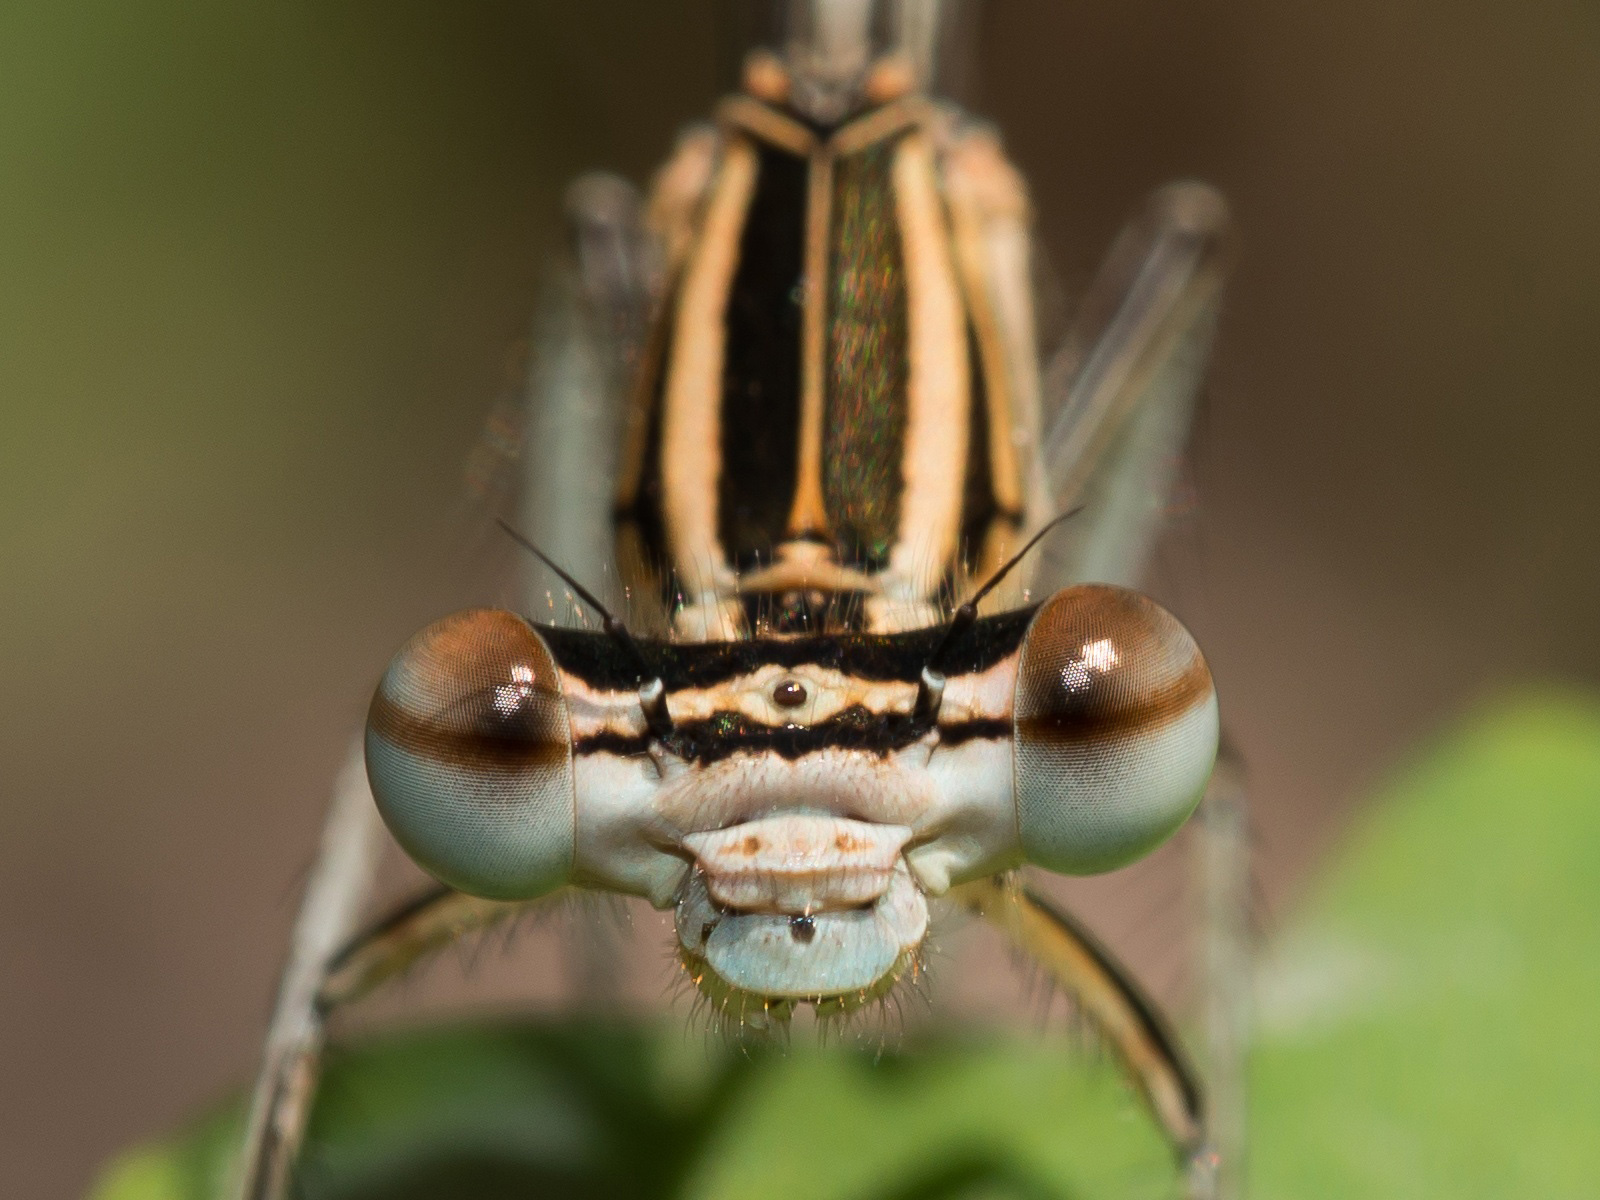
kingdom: Animalia
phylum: Arthropoda
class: Insecta
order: Odonata
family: Platycnemididae
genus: Platycnemis
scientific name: Platycnemis pennipes
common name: White-legged damselfly
